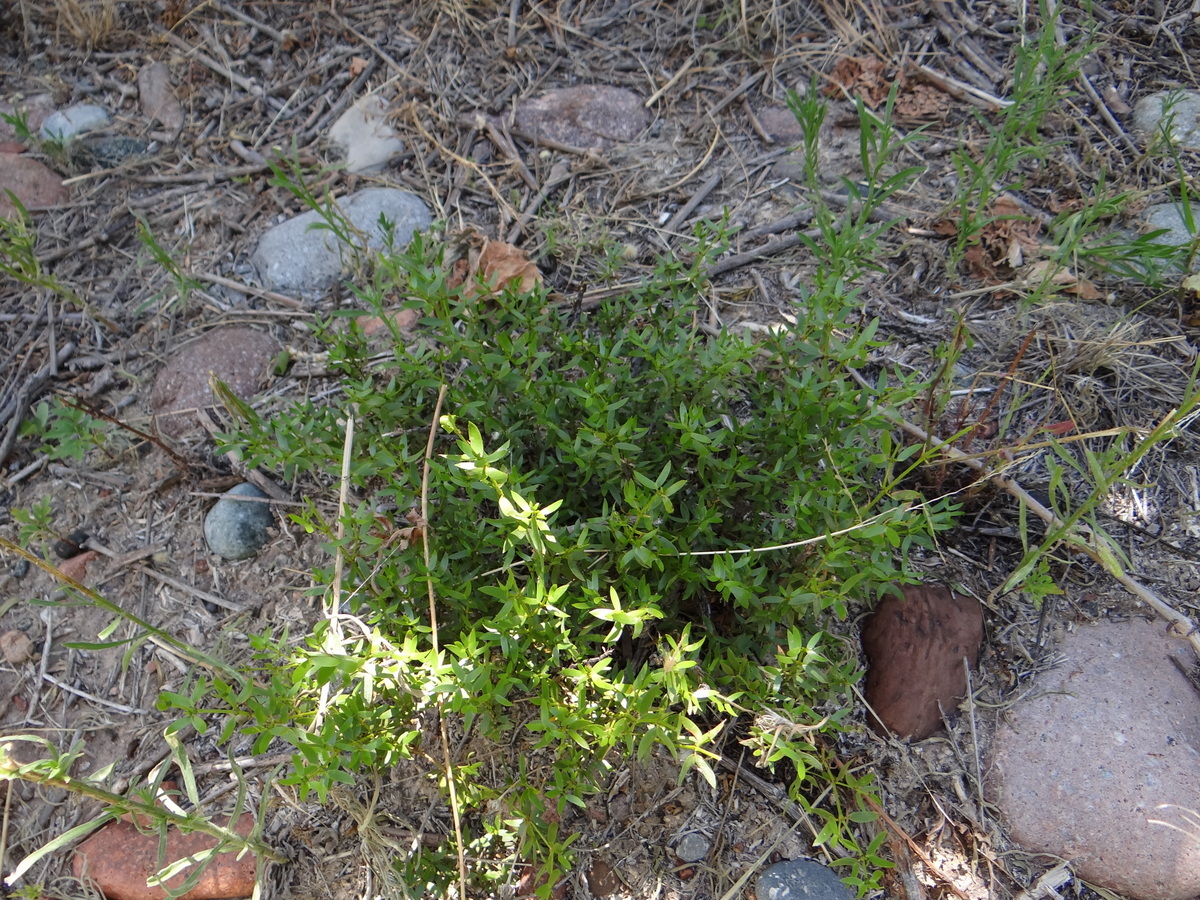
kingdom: Plantae
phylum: Tracheophyta
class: Magnoliopsida
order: Zygophyllales
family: Zygophyllaceae
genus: Larrea
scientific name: Larrea divaricata
